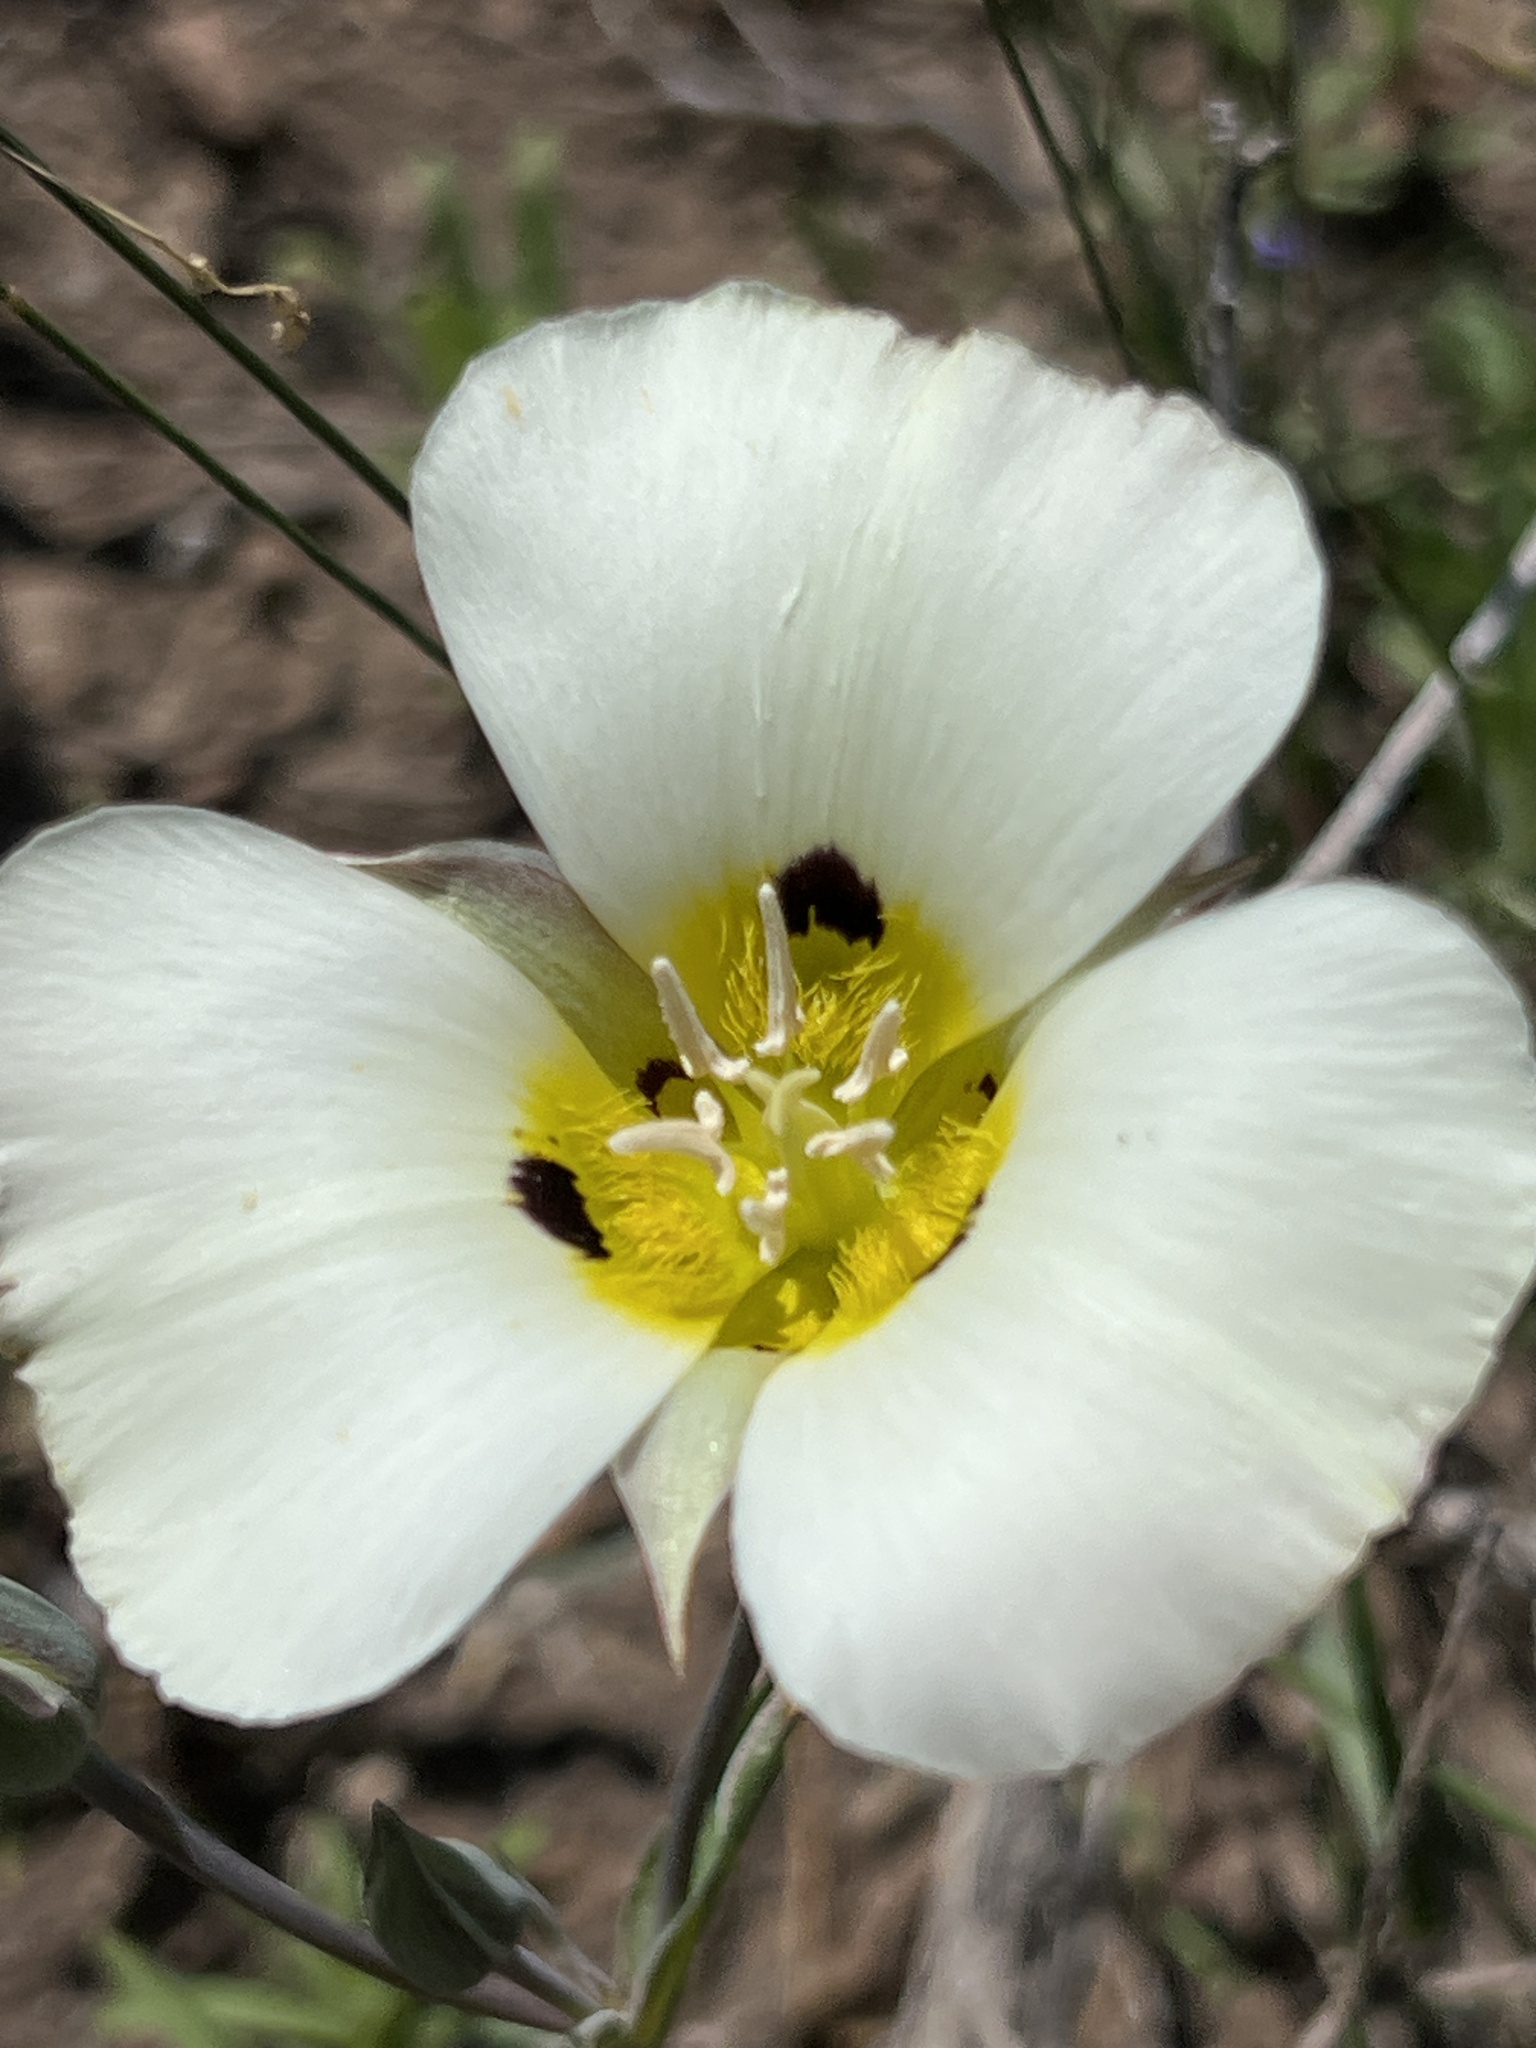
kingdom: Plantae
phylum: Tracheophyta
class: Liliopsida
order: Liliales
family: Liliaceae
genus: Calochortus
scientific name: Calochortus leichtlinii
